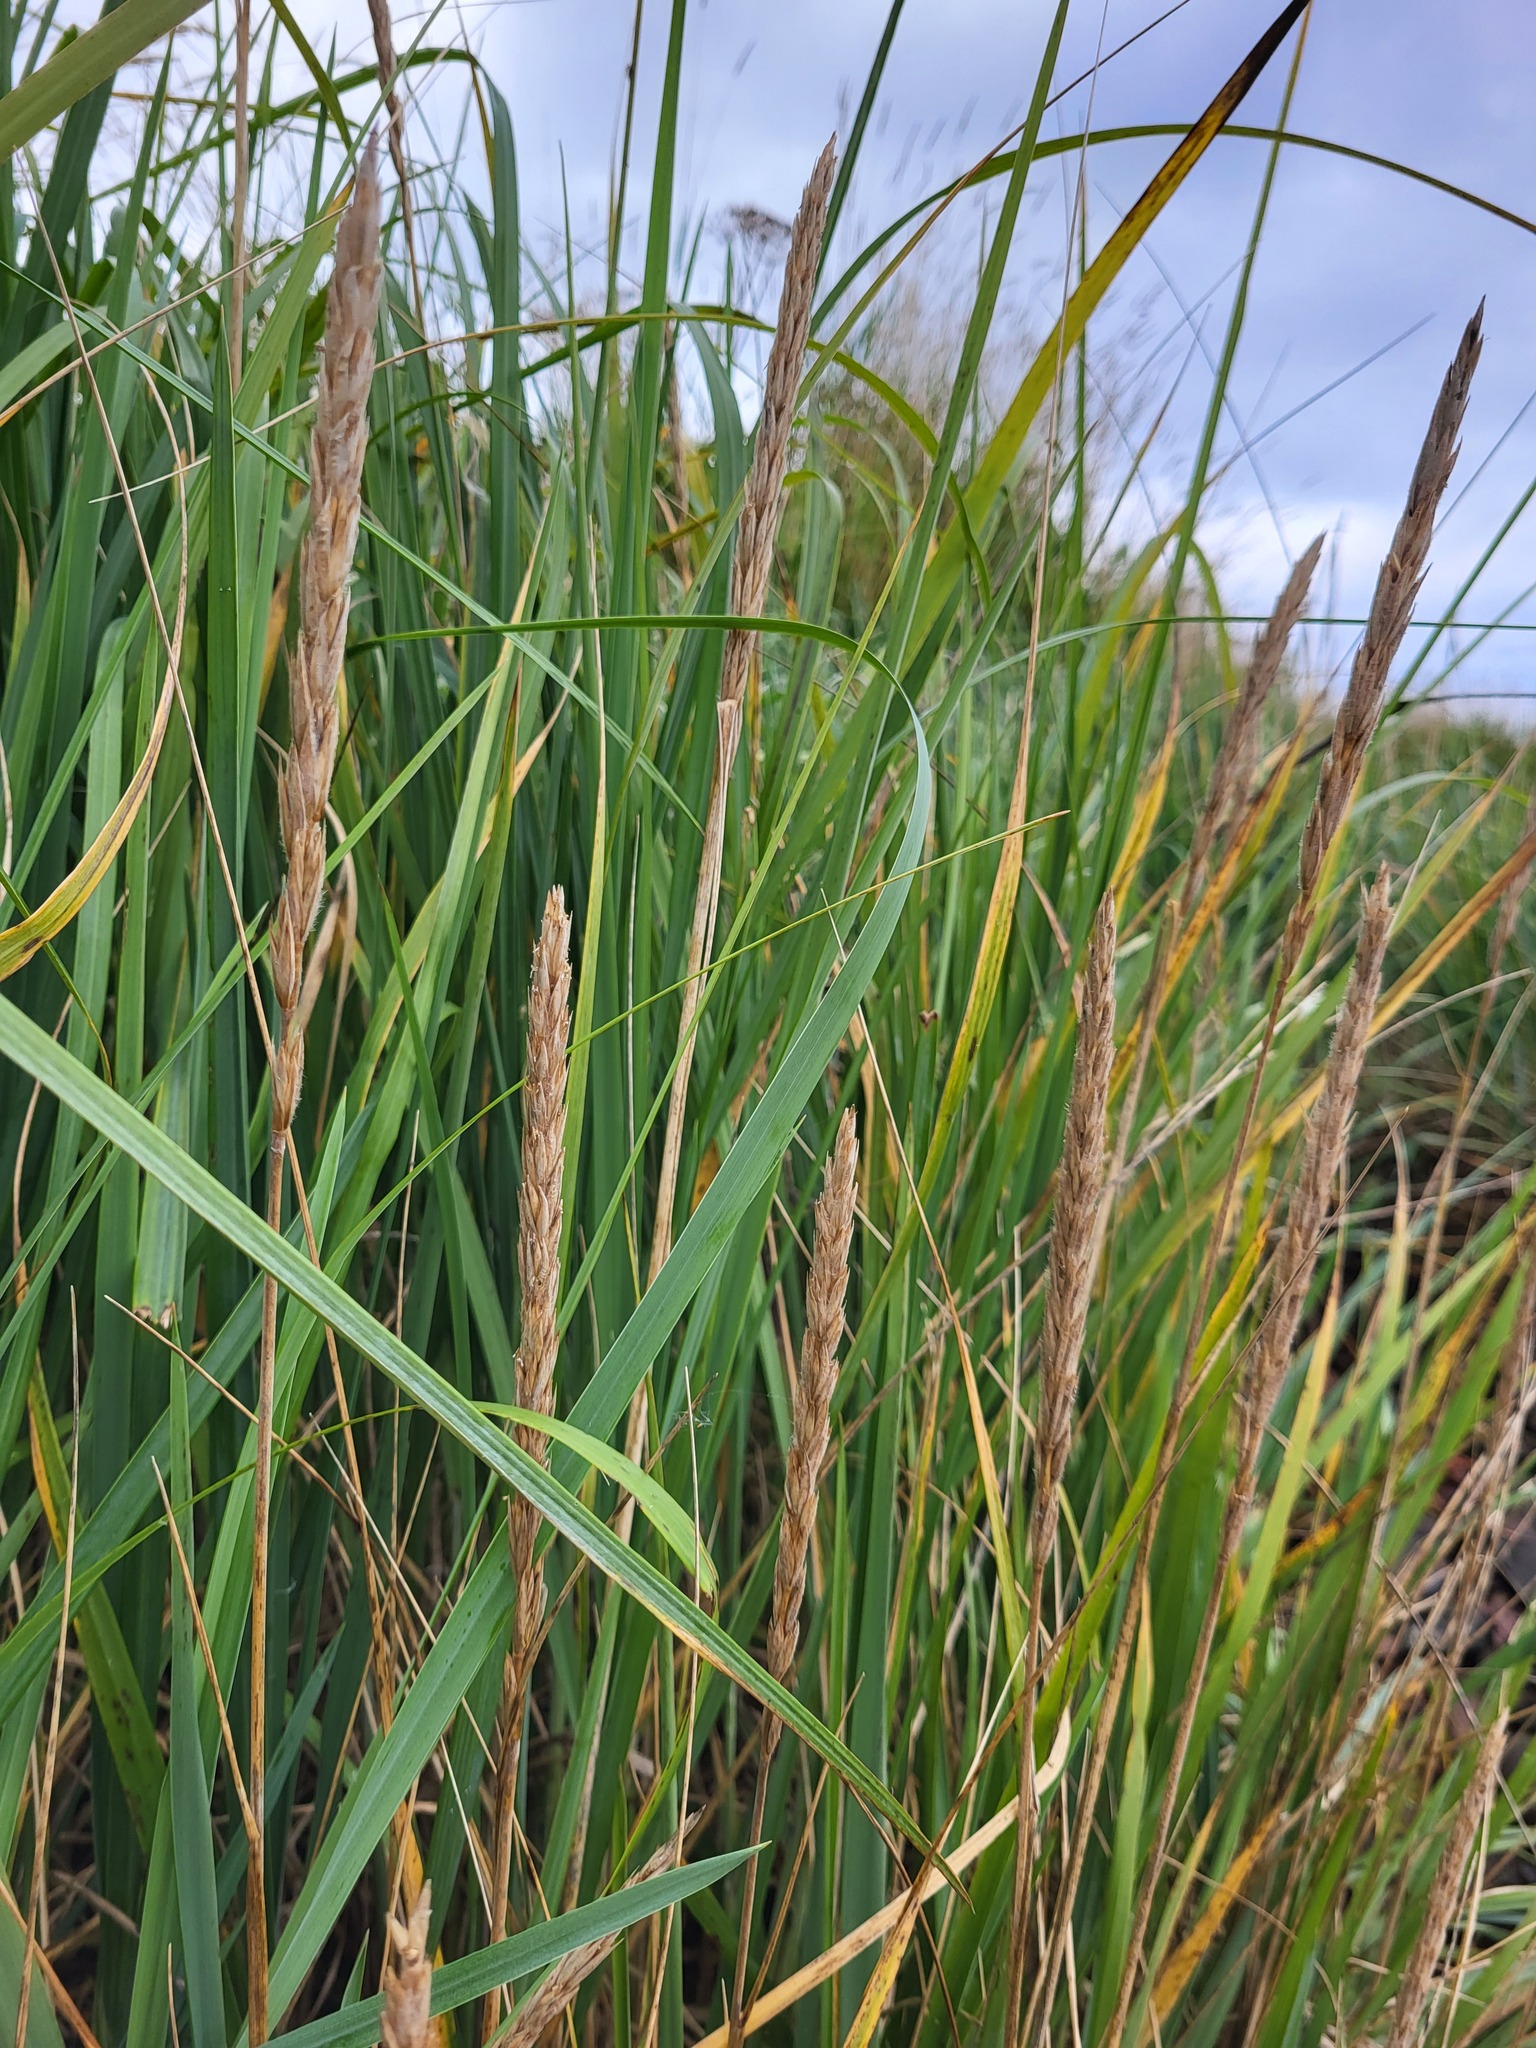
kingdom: Plantae
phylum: Tracheophyta
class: Liliopsida
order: Poales
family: Poaceae
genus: Leymus
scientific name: Leymus mollis
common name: American dune grass
